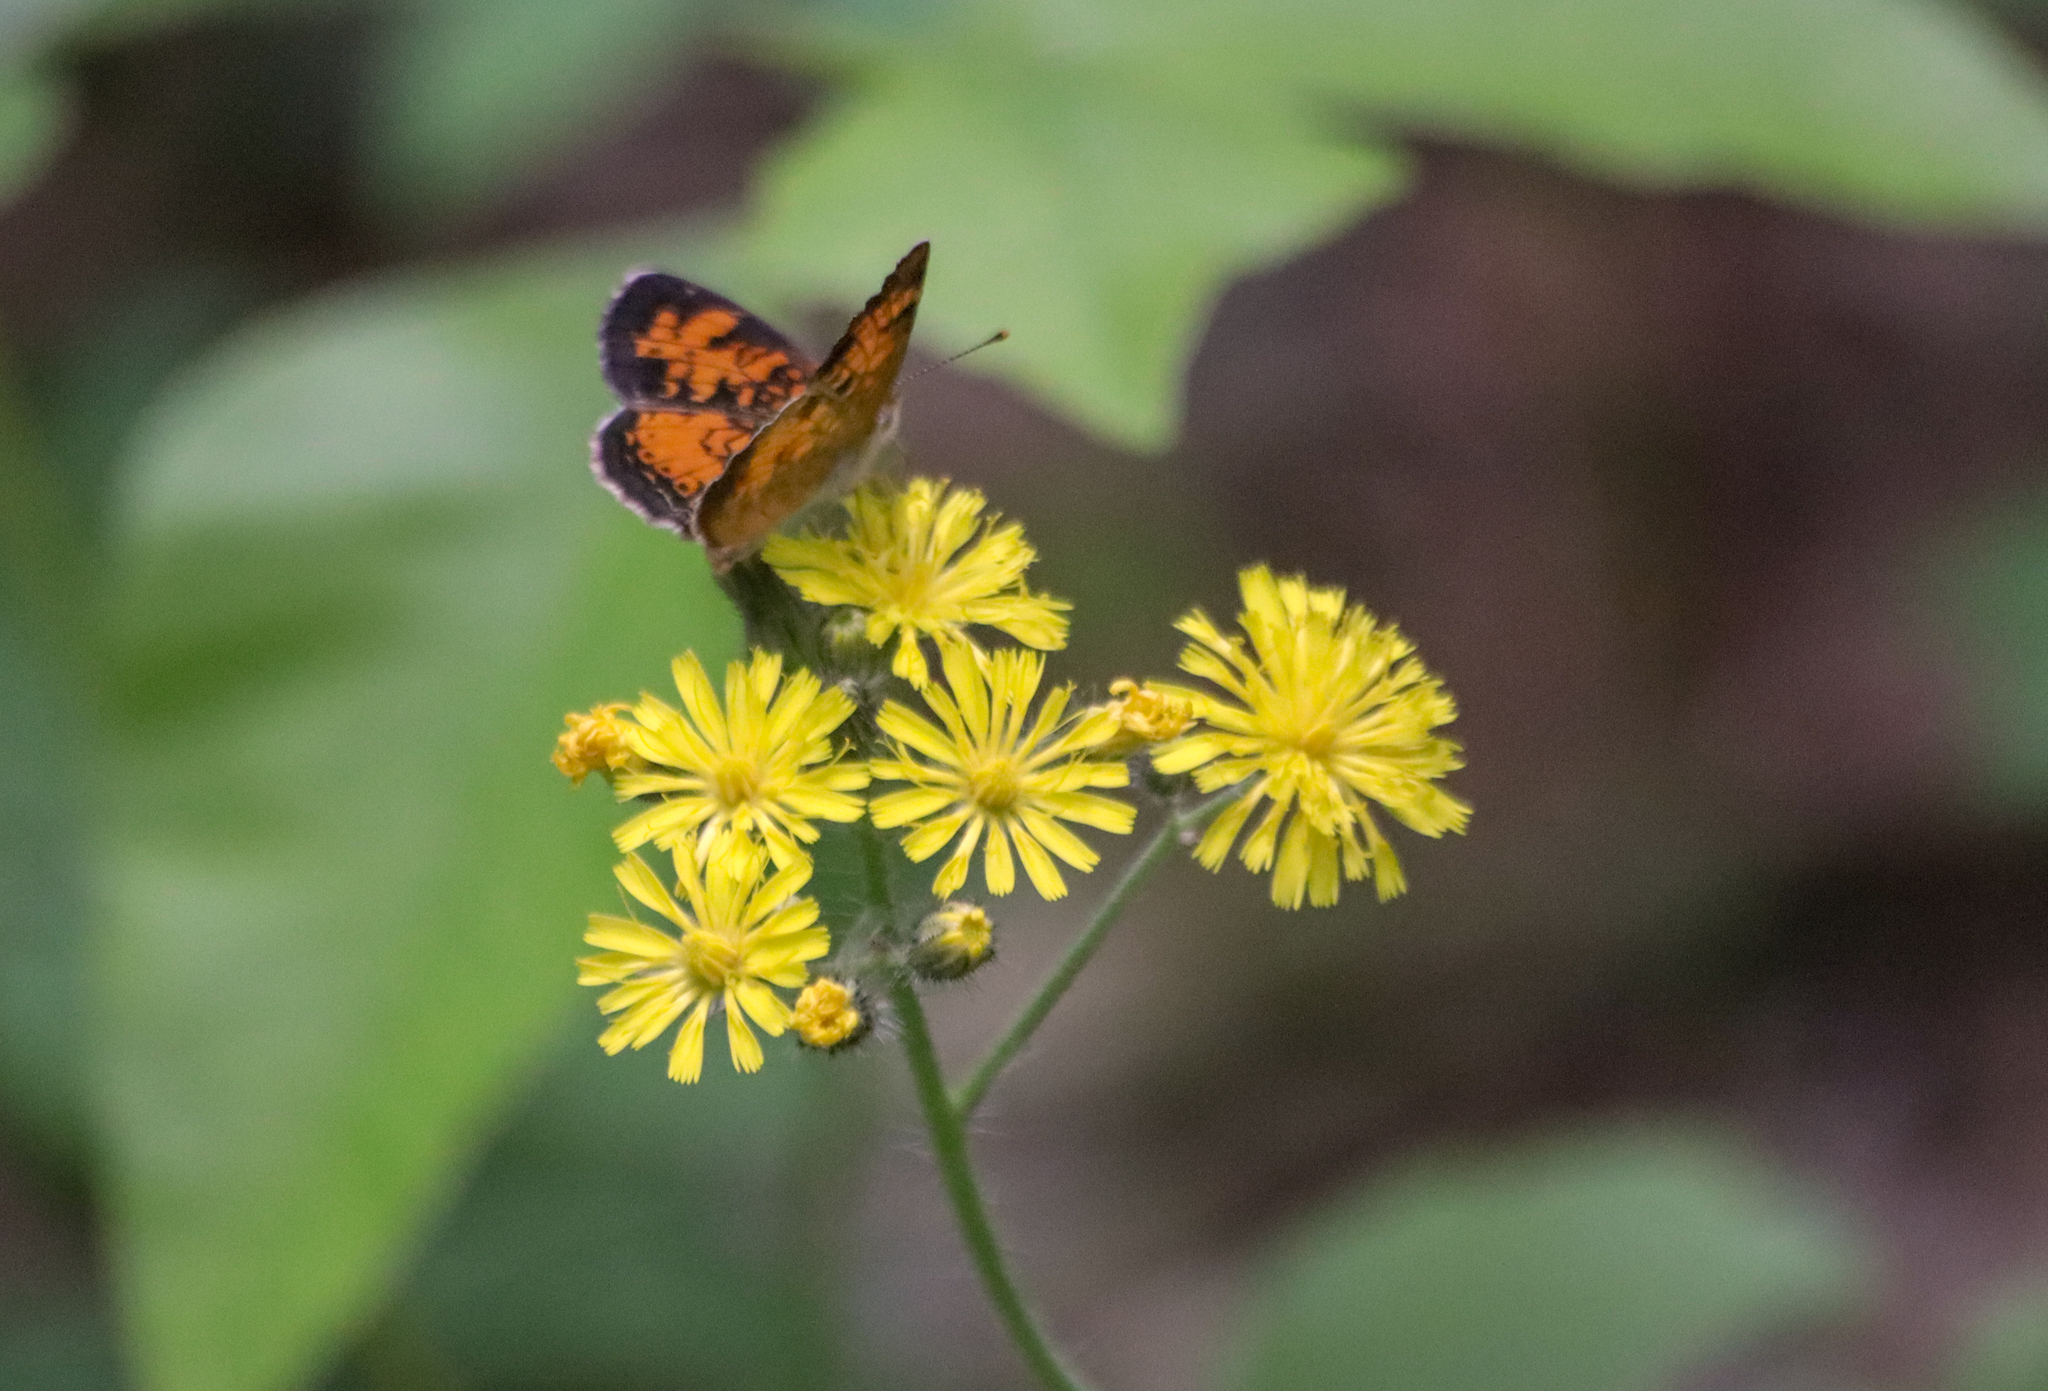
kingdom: Animalia
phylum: Arthropoda
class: Insecta
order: Lepidoptera
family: Nymphalidae
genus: Phyciodes
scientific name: Phyciodes tharos
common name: Pearl crescent
